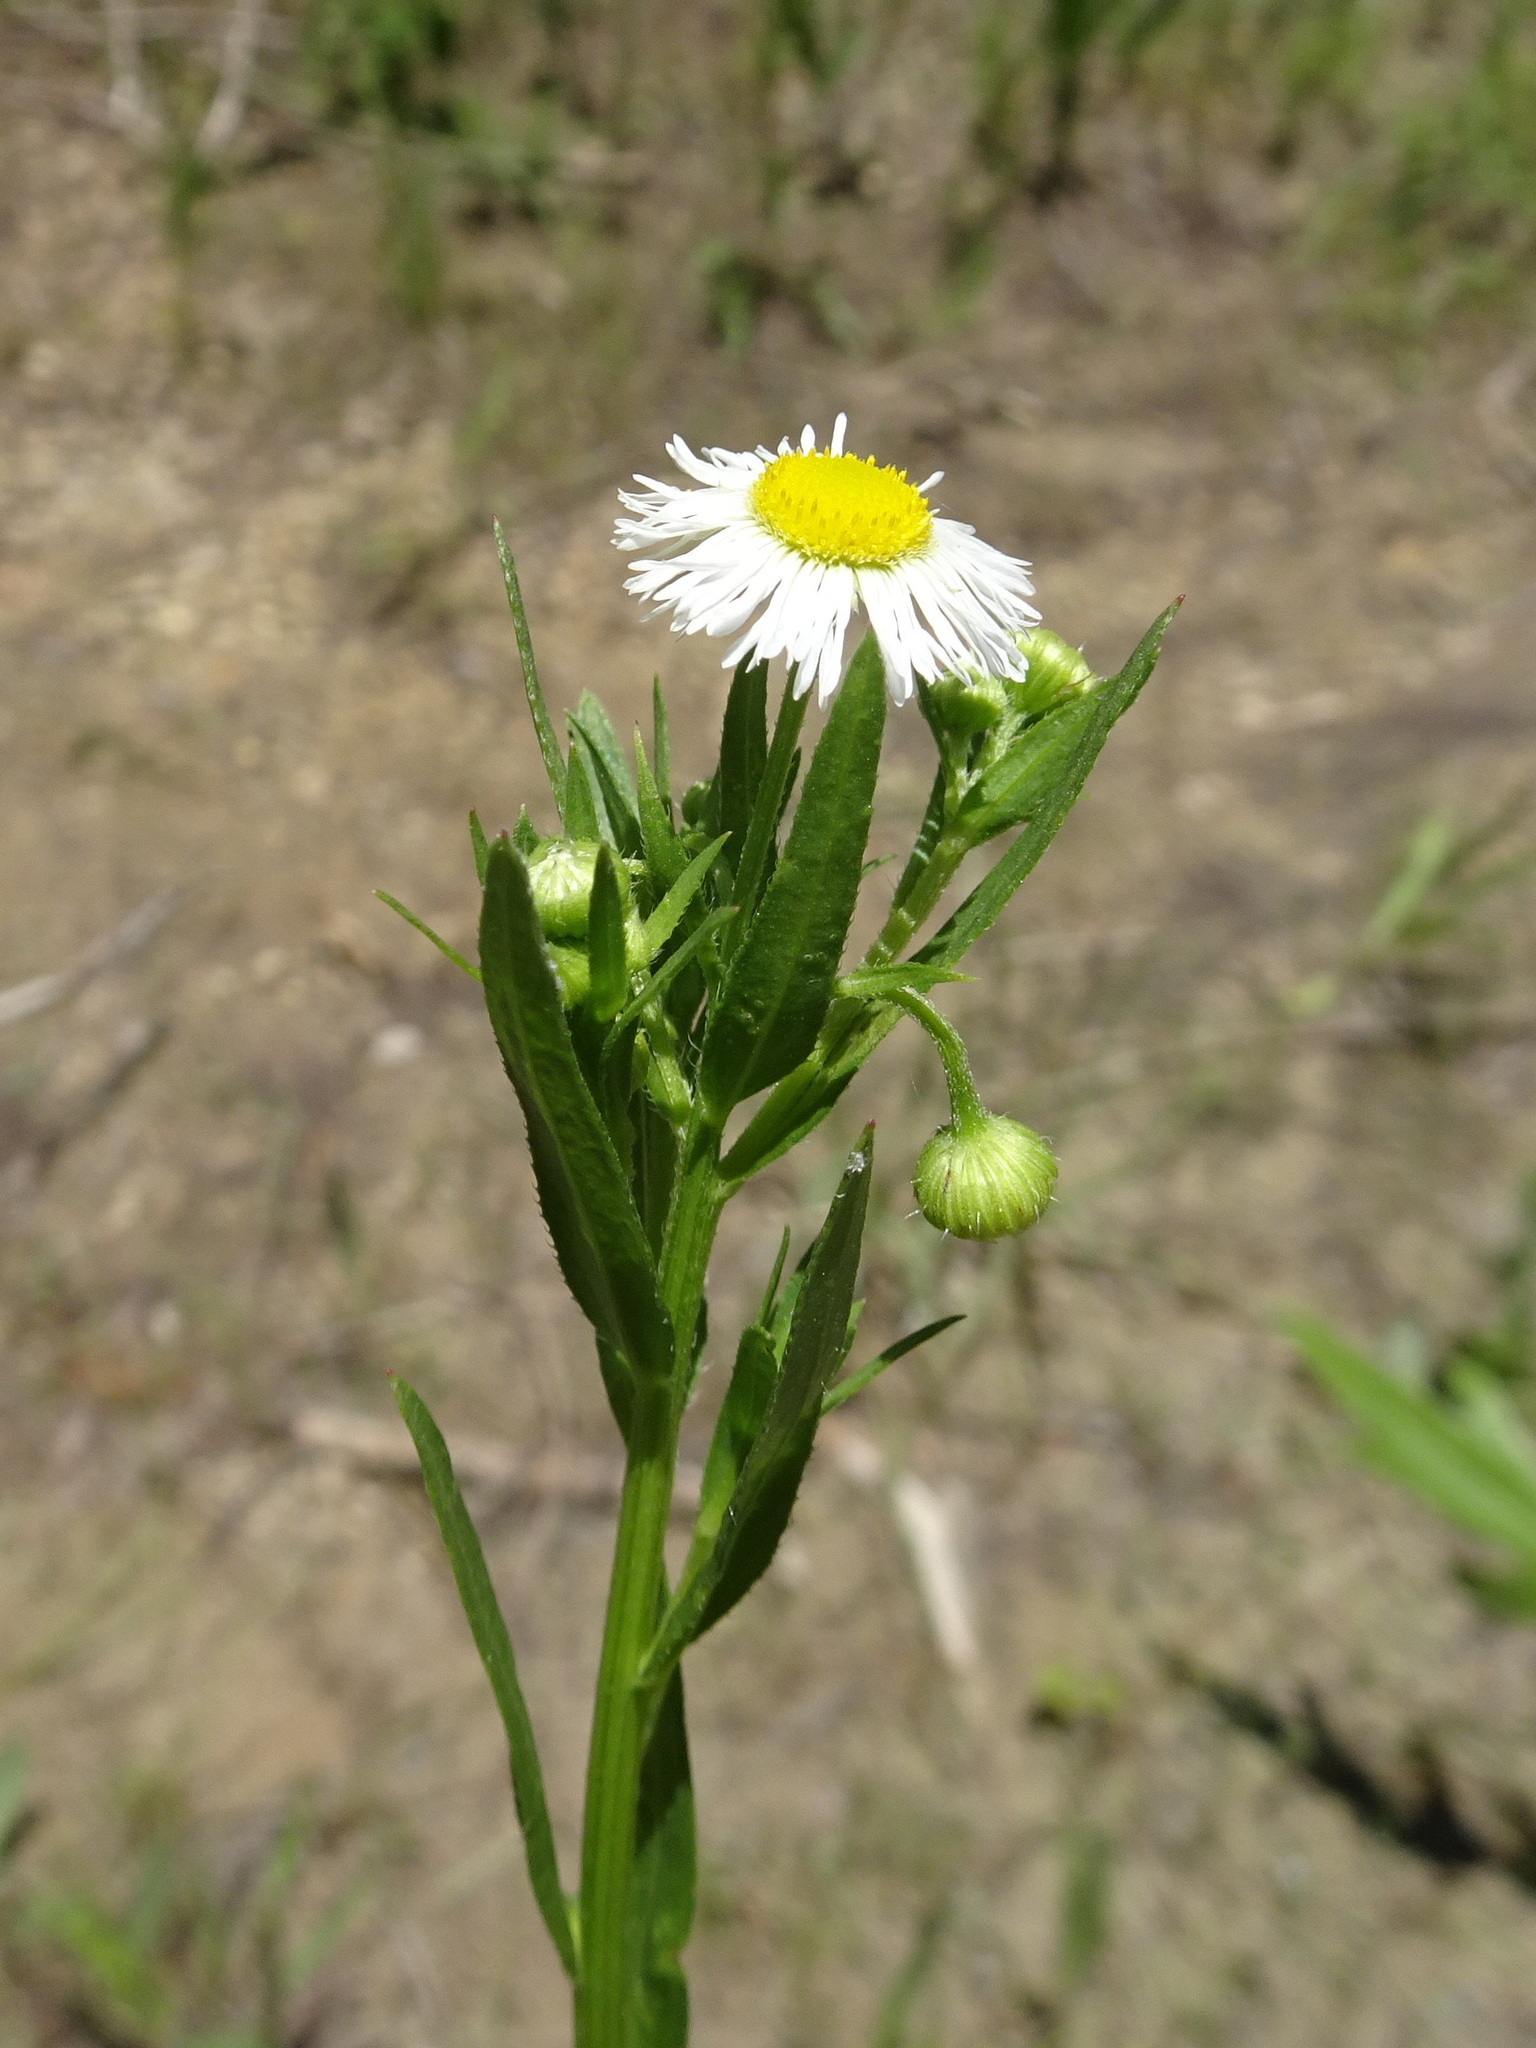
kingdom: Plantae
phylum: Tracheophyta
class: Magnoliopsida
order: Asterales
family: Asteraceae
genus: Erigeron
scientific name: Erigeron annuus
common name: Tall fleabane
